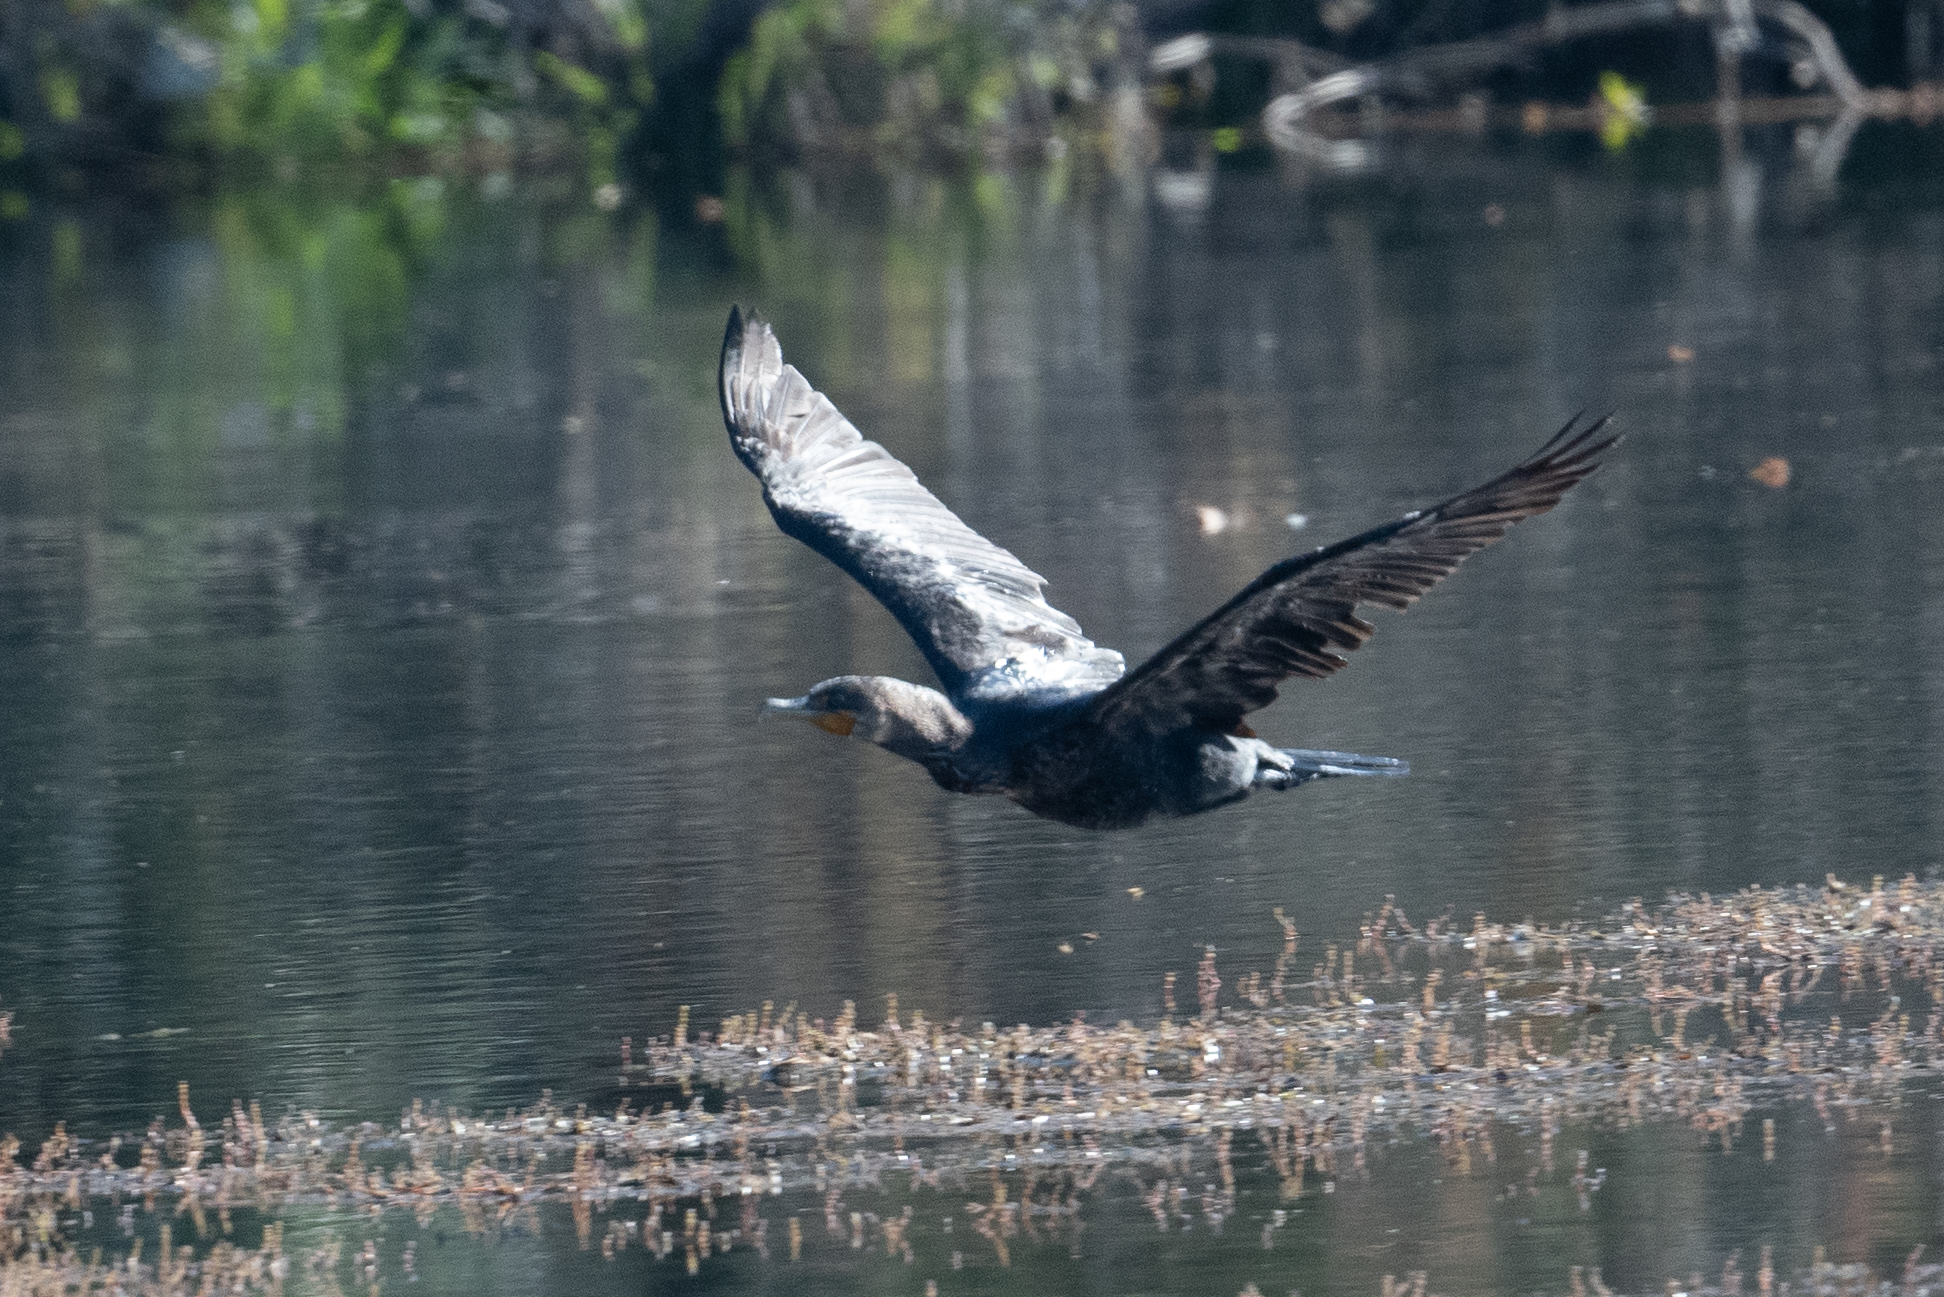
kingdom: Animalia
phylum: Chordata
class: Aves
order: Suliformes
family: Phalacrocoracidae
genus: Phalacrocorax
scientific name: Phalacrocorax auritus
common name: Double-crested cormorant
